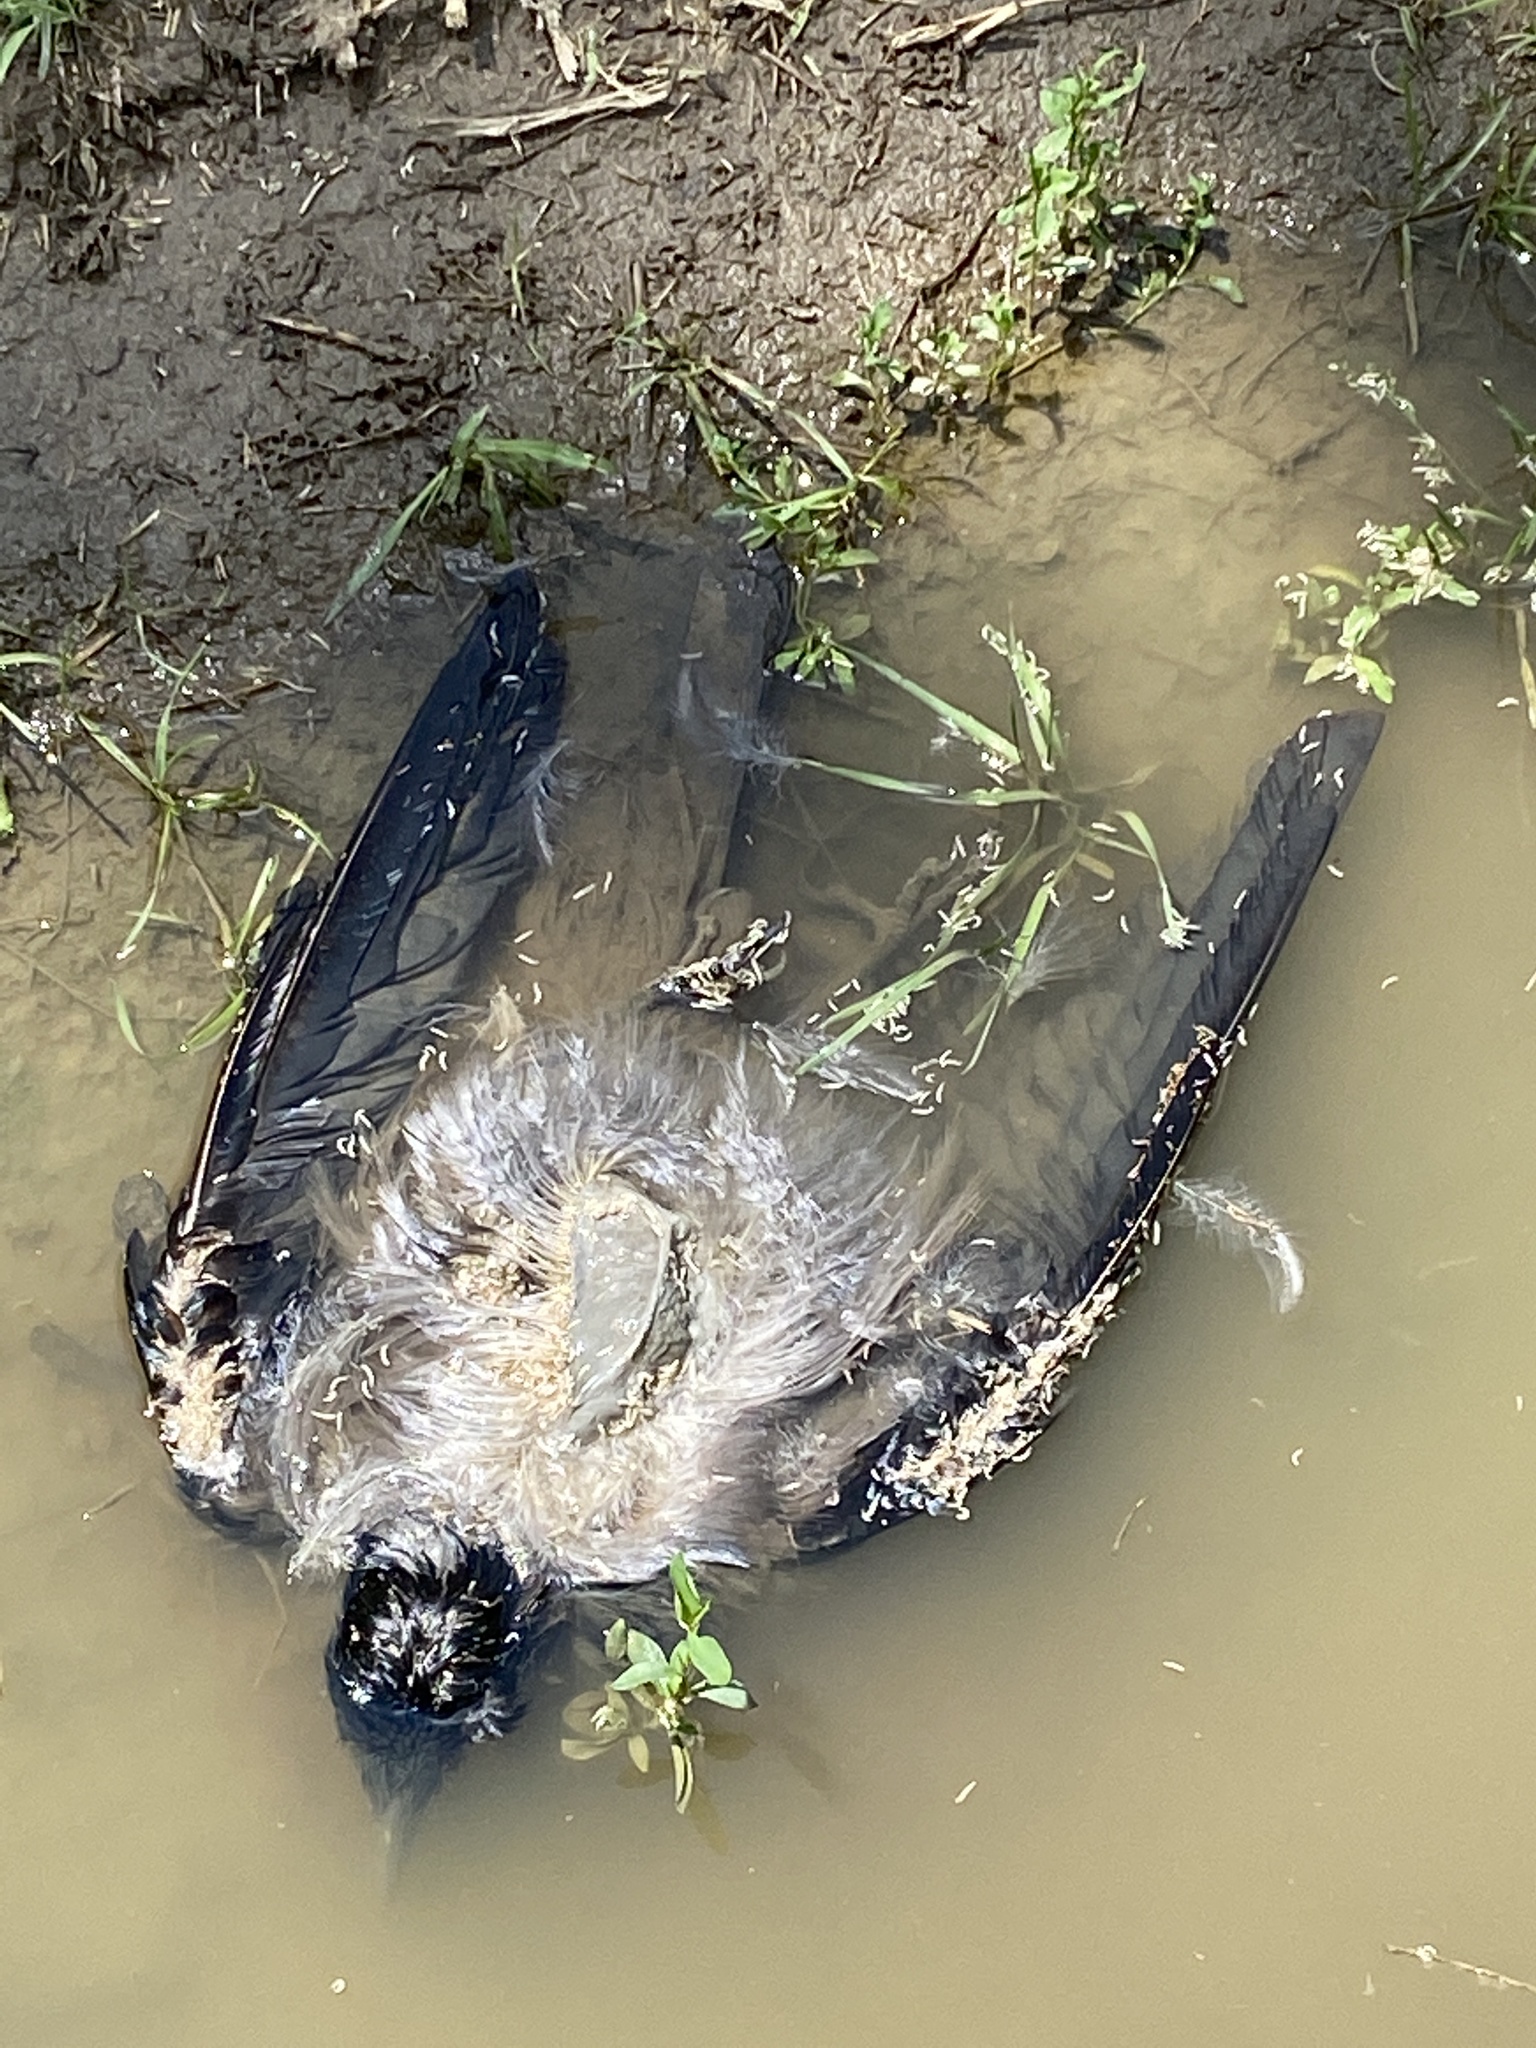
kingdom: Animalia
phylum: Chordata
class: Aves
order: Passeriformes
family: Corvidae
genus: Corvus
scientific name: Corvus cornix
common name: Hooded crow
